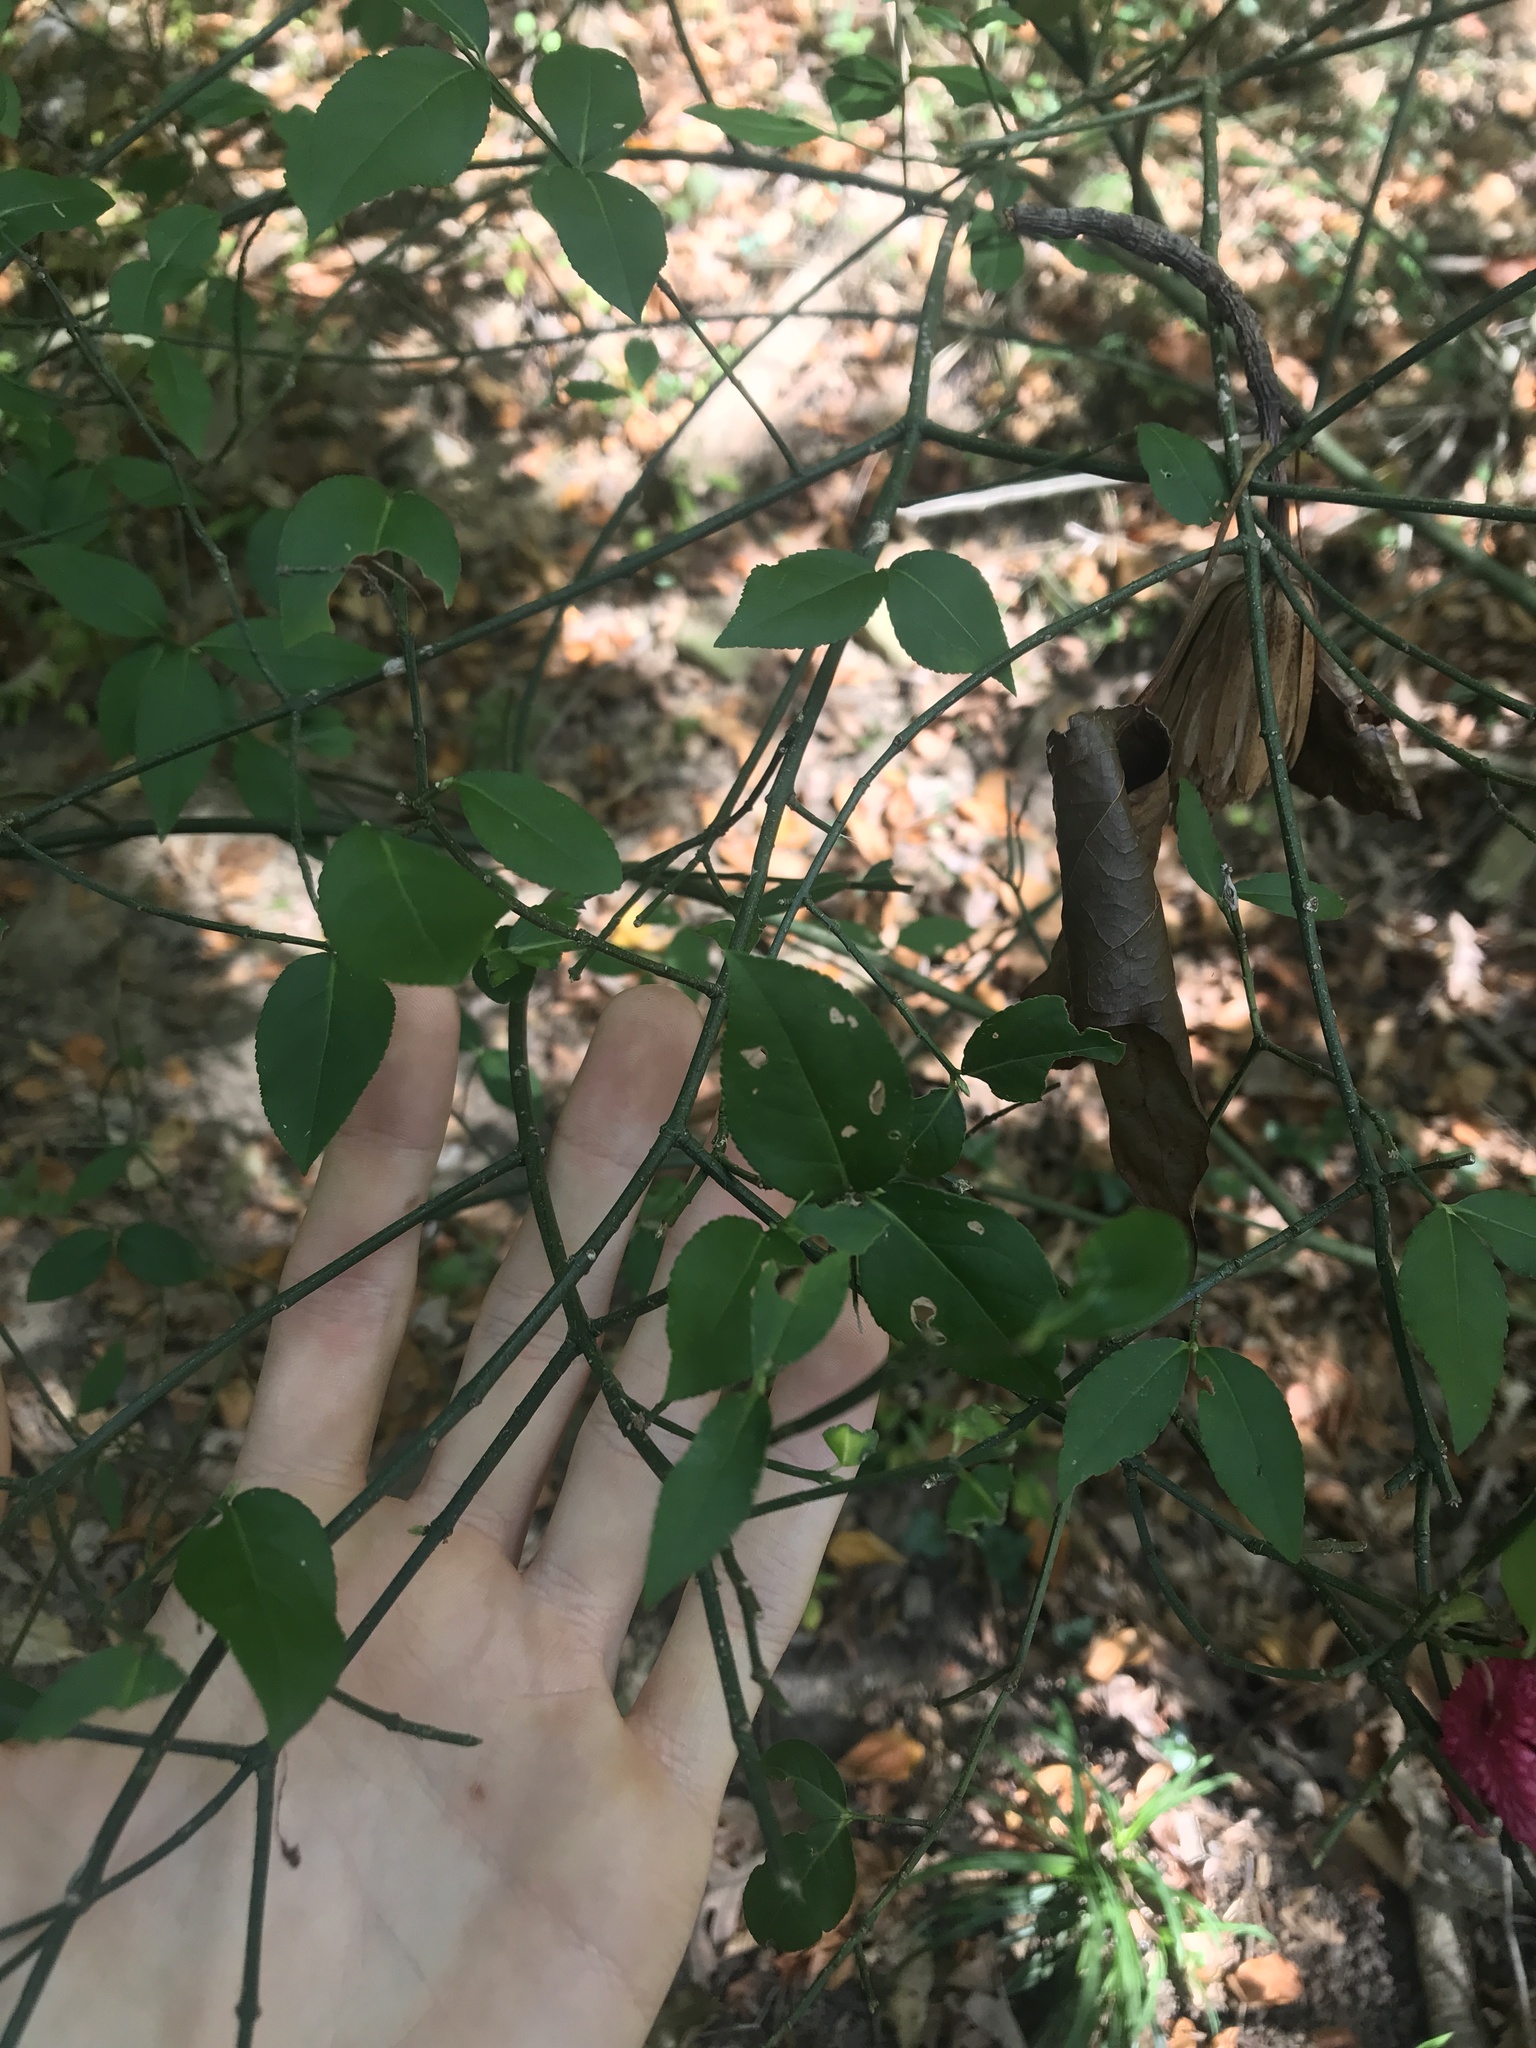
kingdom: Plantae
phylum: Tracheophyta
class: Magnoliopsida
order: Celastrales
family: Celastraceae
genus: Euonymus
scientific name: Euonymus americanus
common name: Bursting-heart
